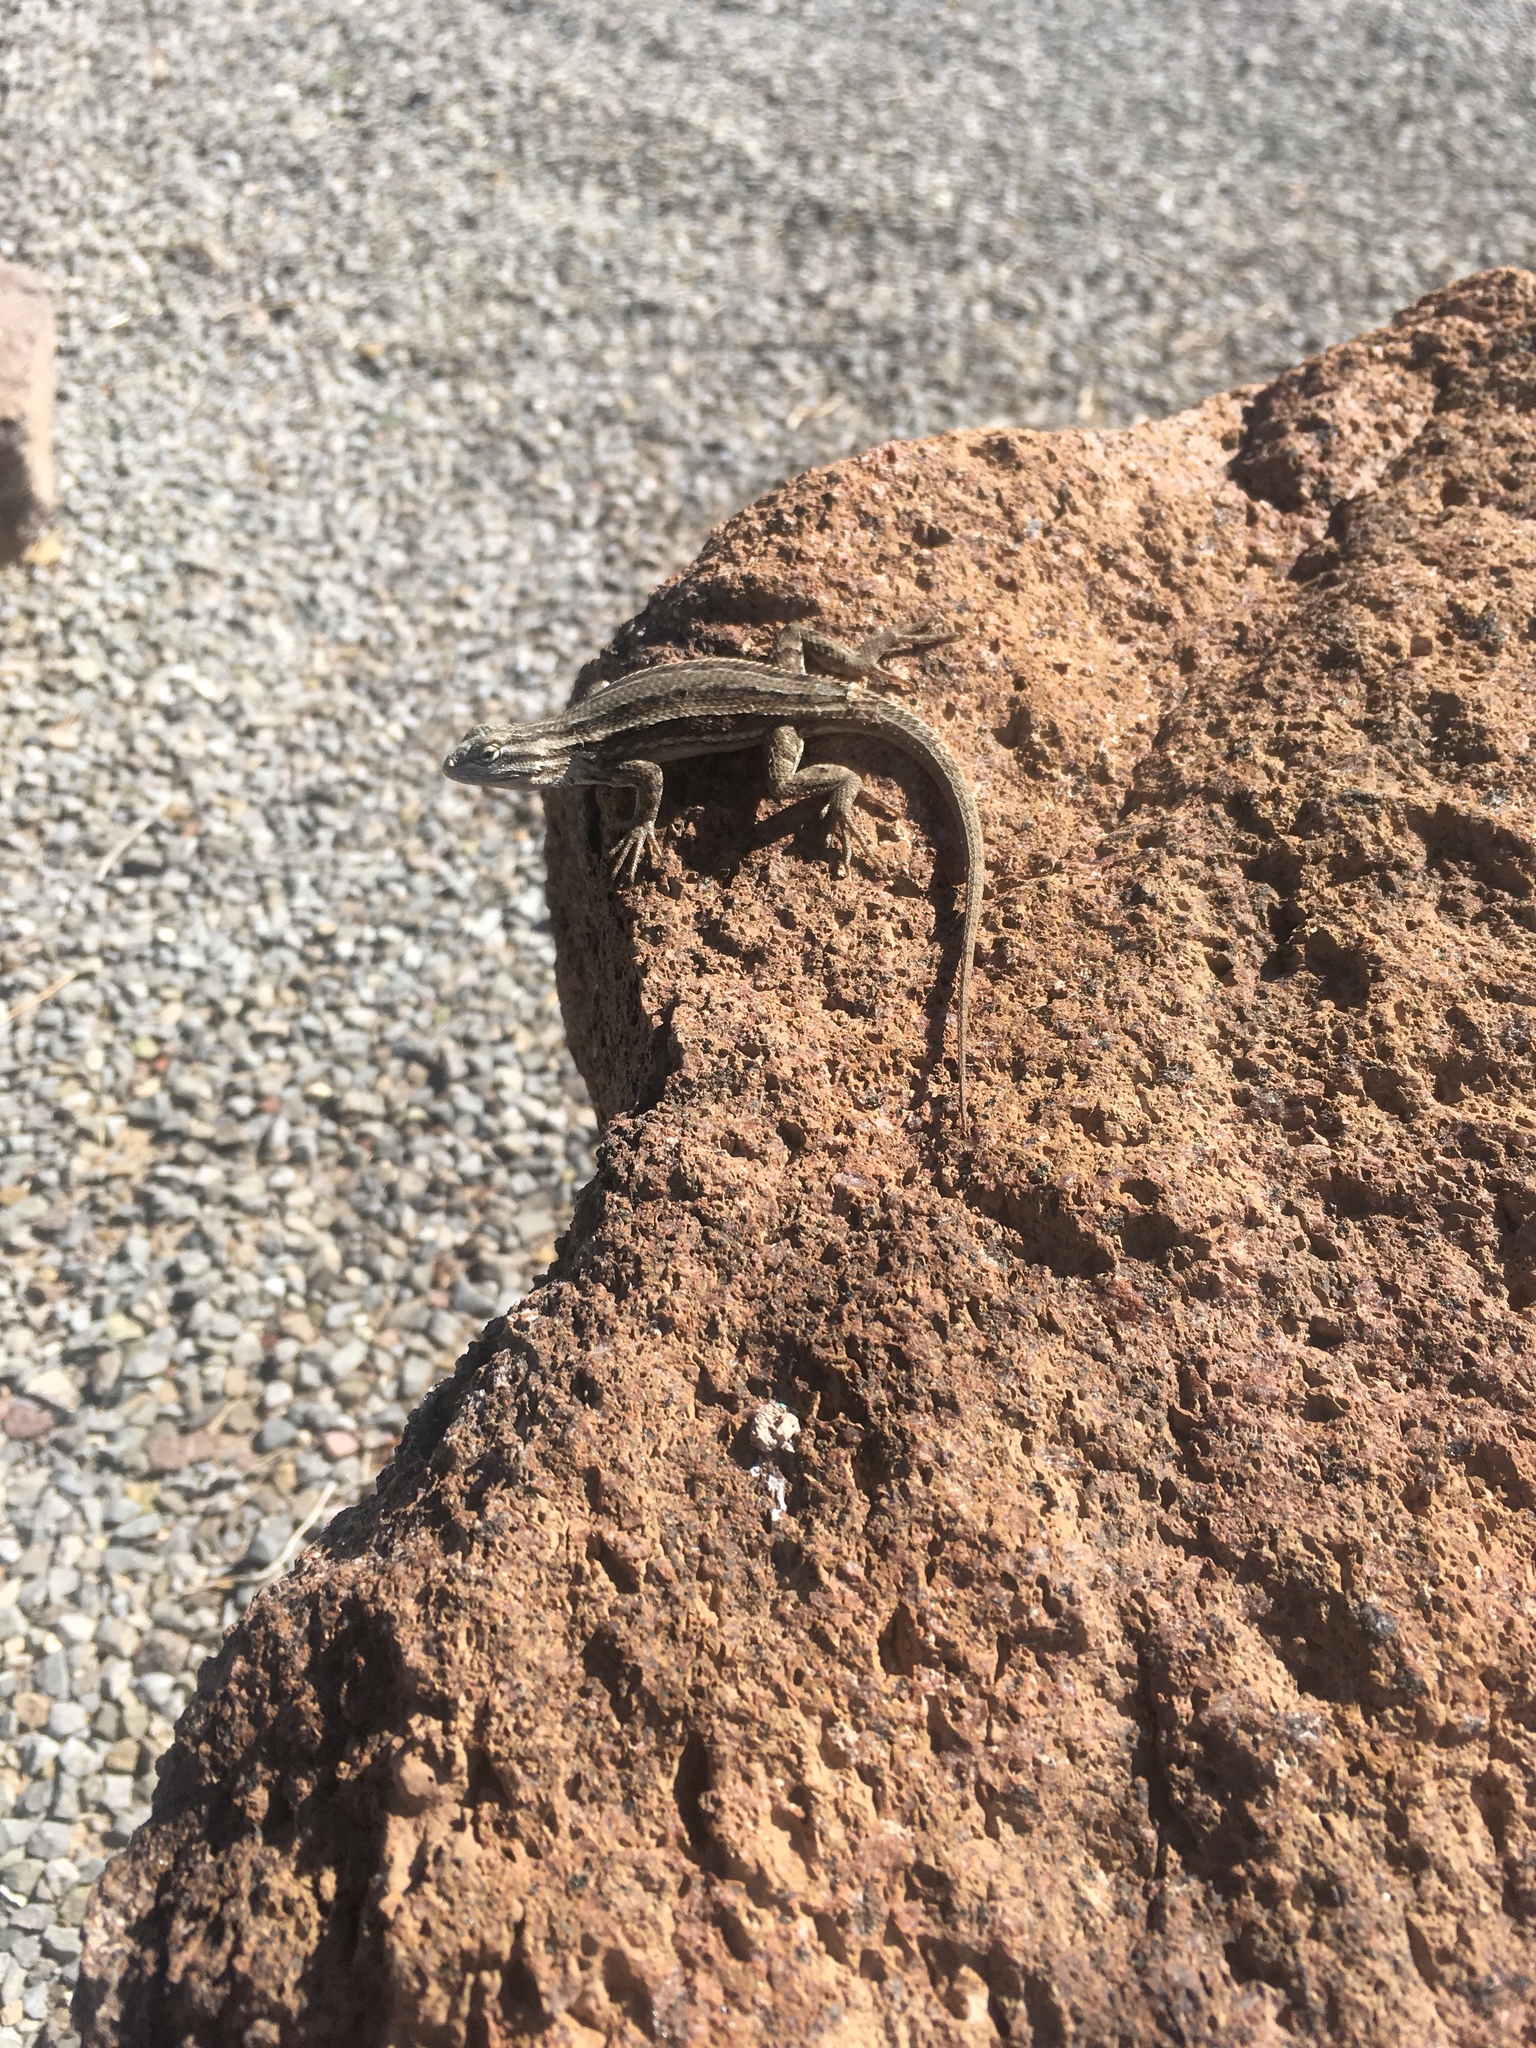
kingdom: Animalia
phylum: Chordata
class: Squamata
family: Phrynosomatidae
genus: Sceloporus
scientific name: Sceloporus cowlesi
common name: White sands prairie lizard
